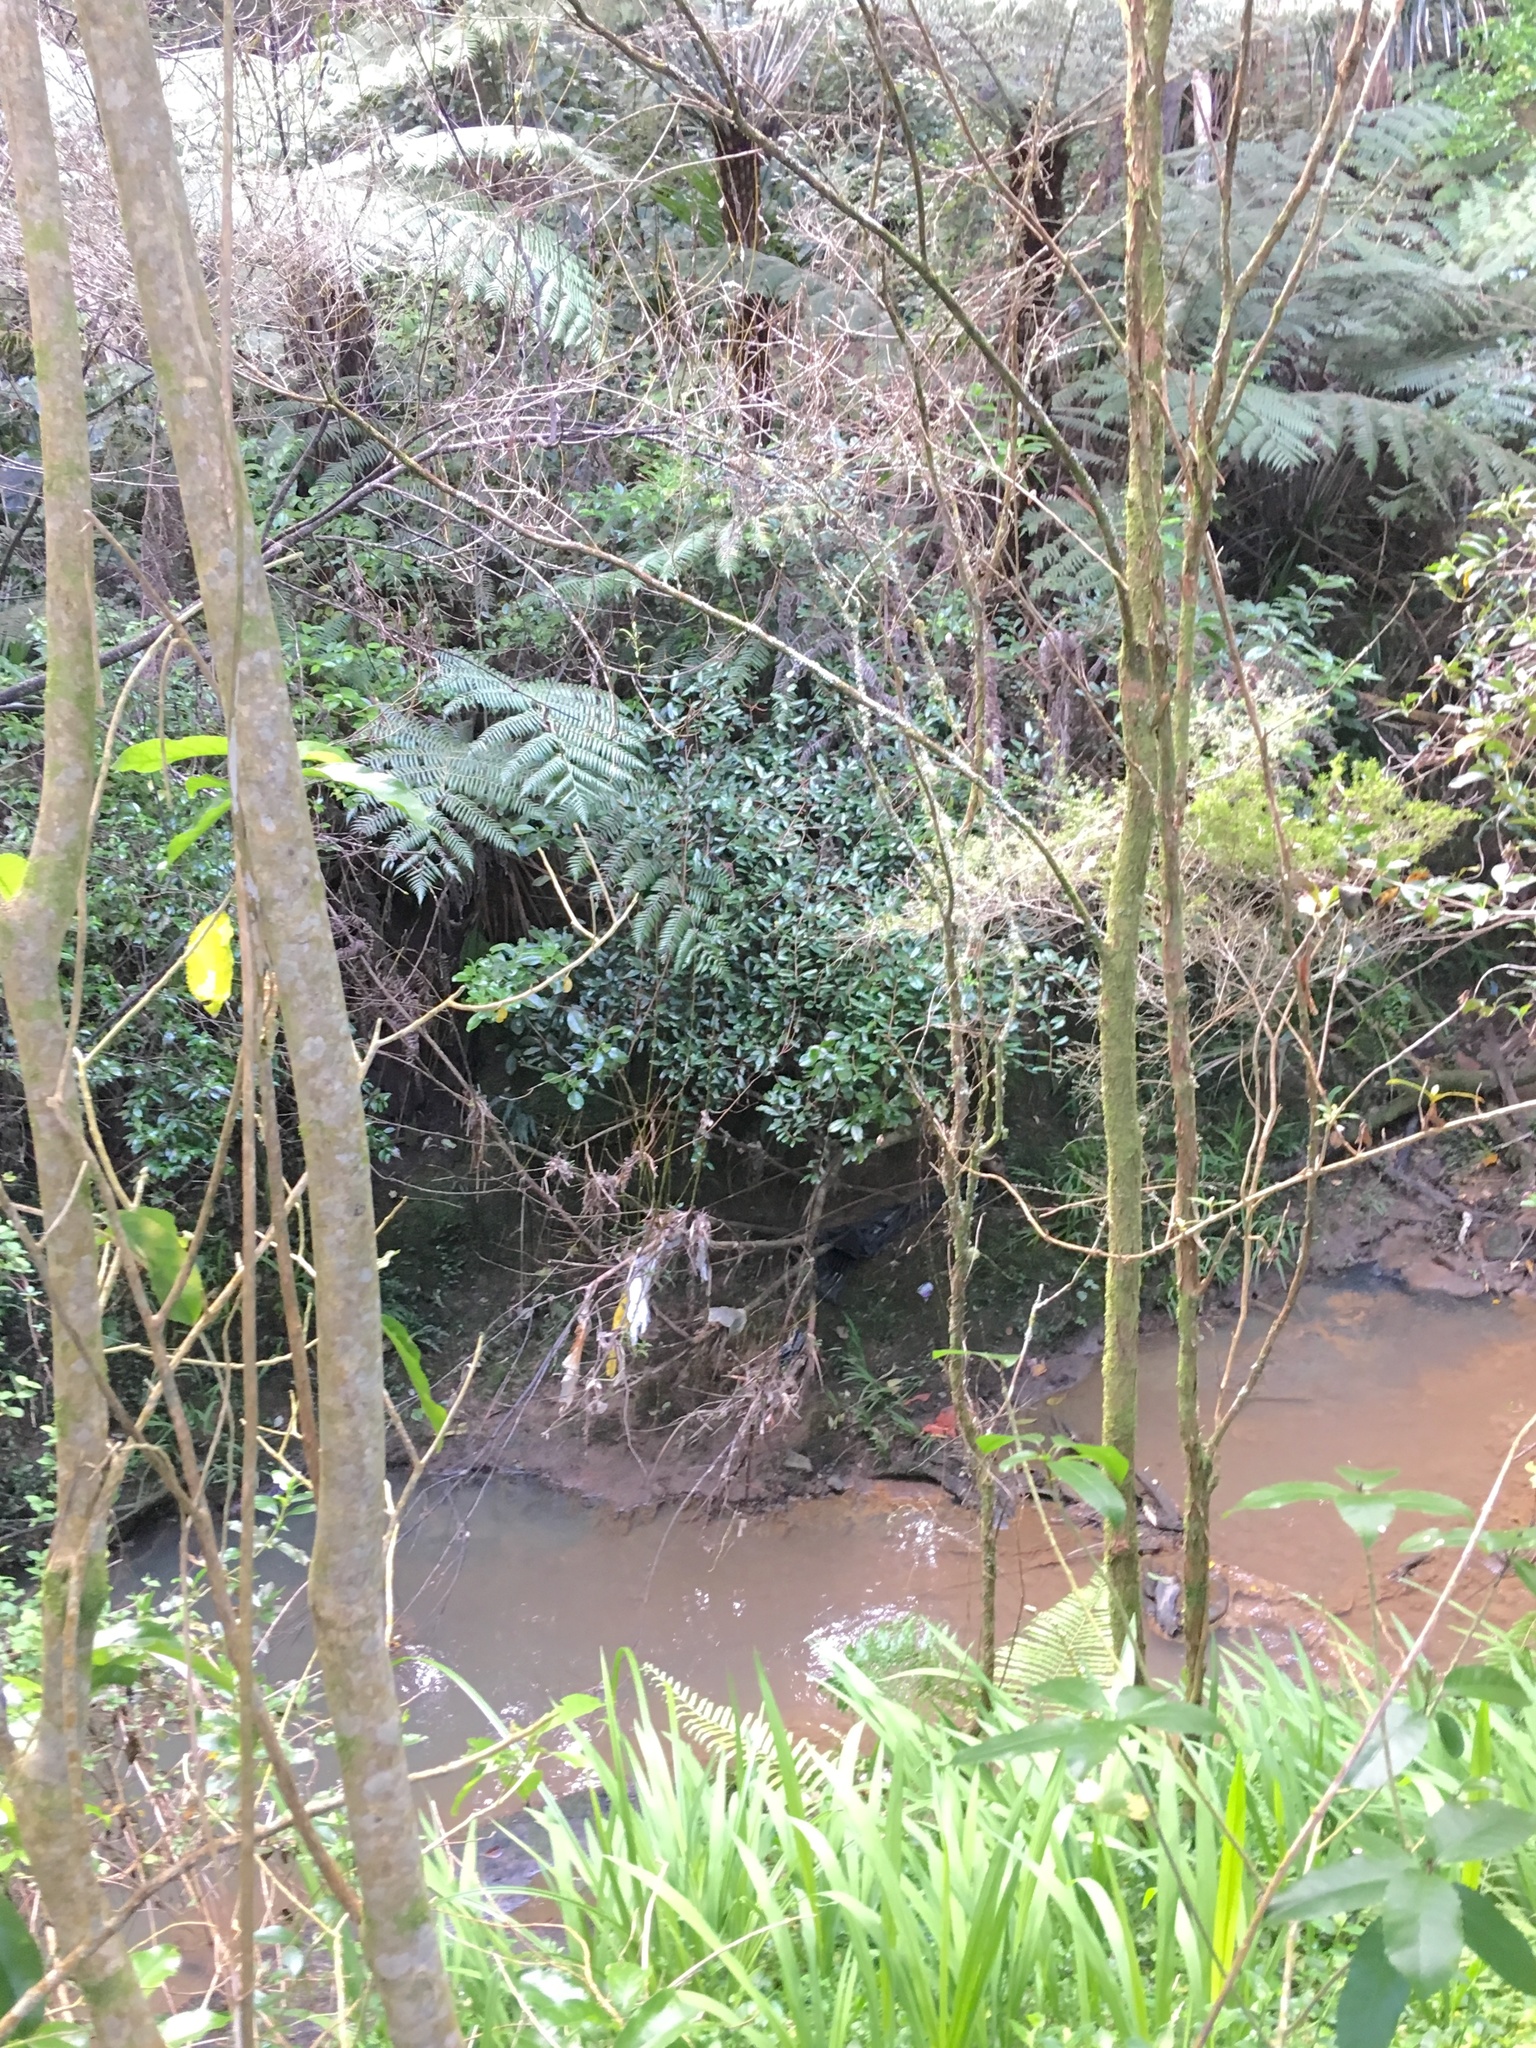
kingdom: Plantae
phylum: Tracheophyta
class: Magnoliopsida
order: Rosales
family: Elaeagnaceae
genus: Elaeagnus
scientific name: Elaeagnus reflexa
